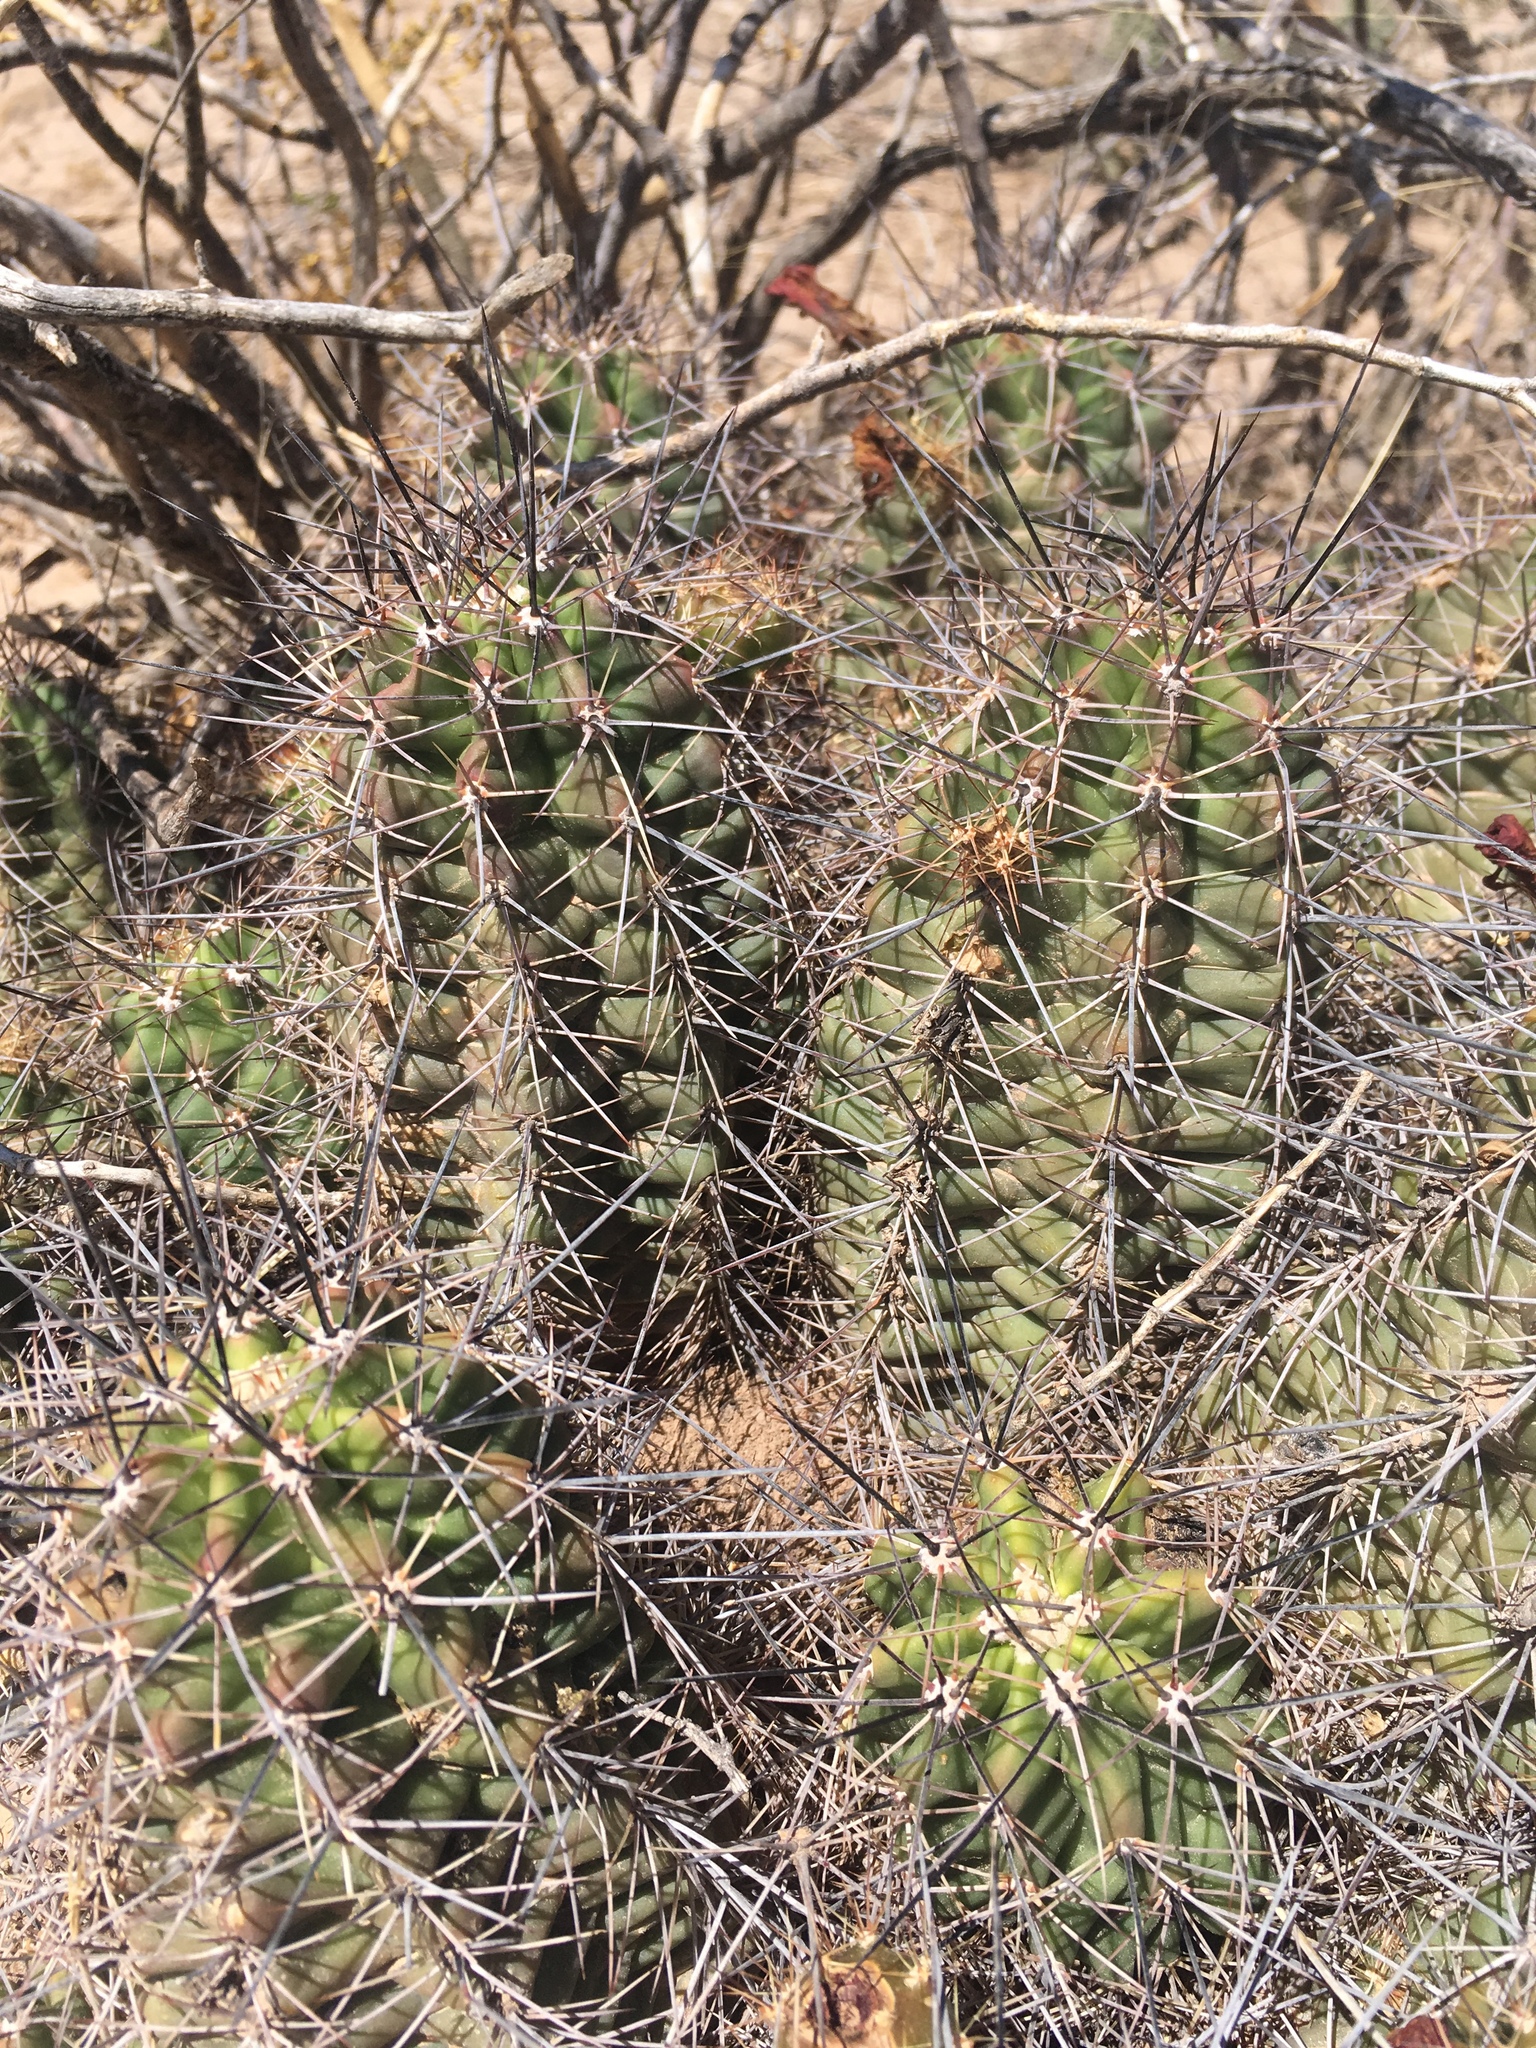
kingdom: Plantae
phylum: Tracheophyta
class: Magnoliopsida
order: Caryophyllales
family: Cactaceae
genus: Echinocereus
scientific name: Echinocereus coccineus
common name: Scarlet hedgehog cactus
